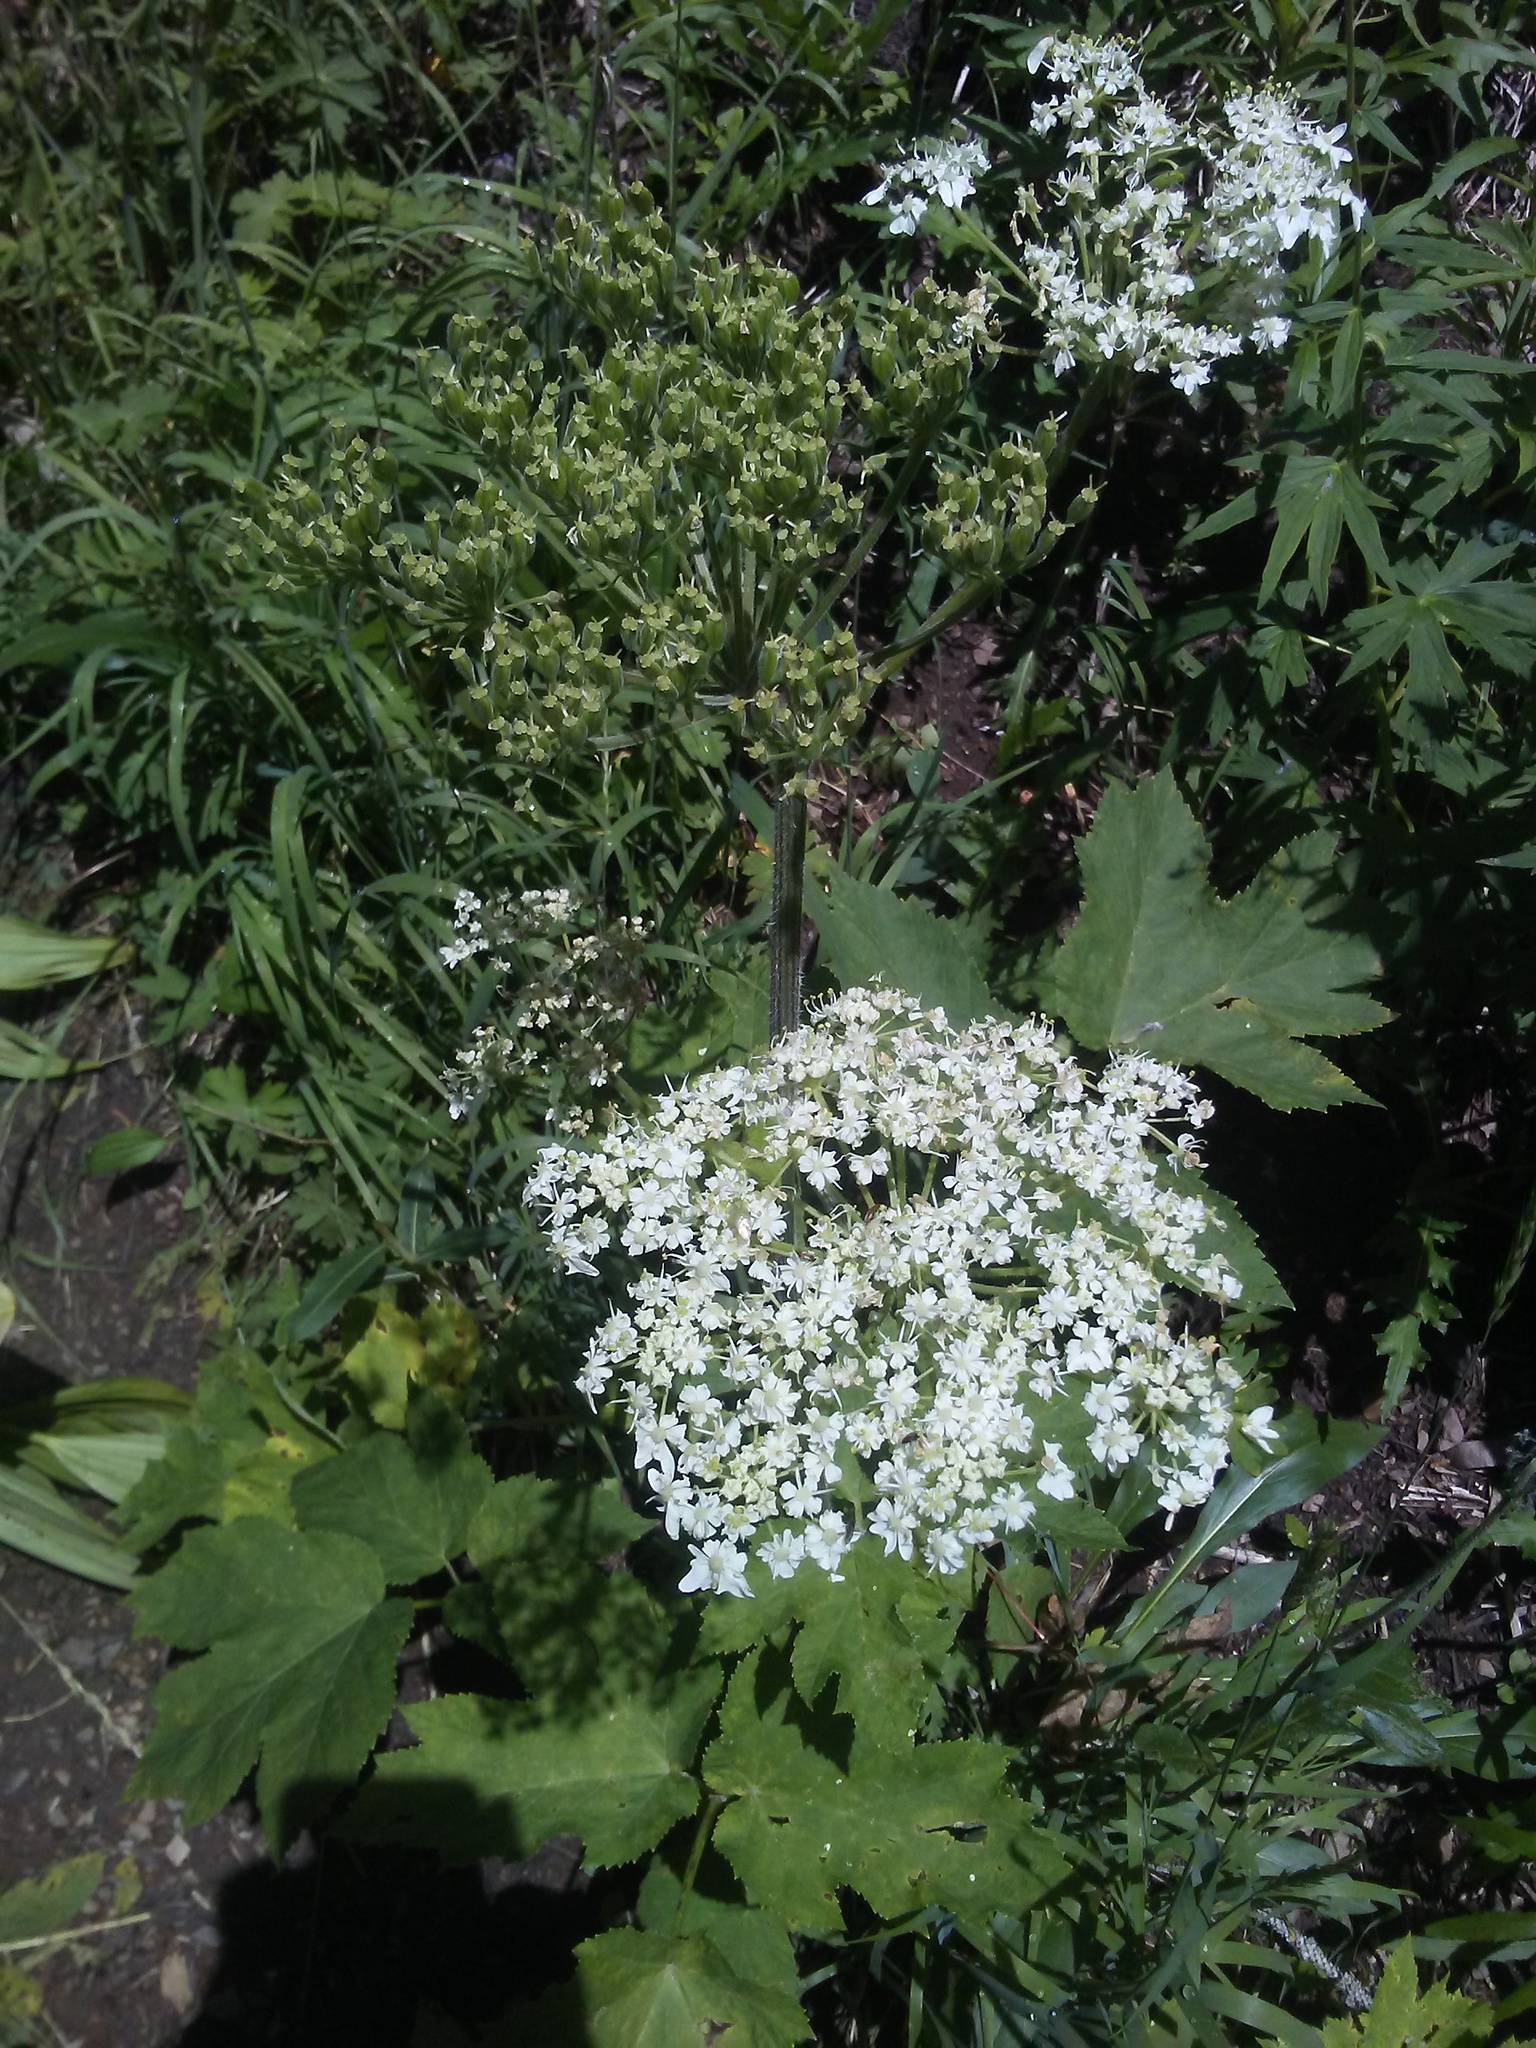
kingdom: Plantae
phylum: Tracheophyta
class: Magnoliopsida
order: Apiales
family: Apiaceae
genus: Heracleum
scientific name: Heracleum maximum
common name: American cow parsnip
